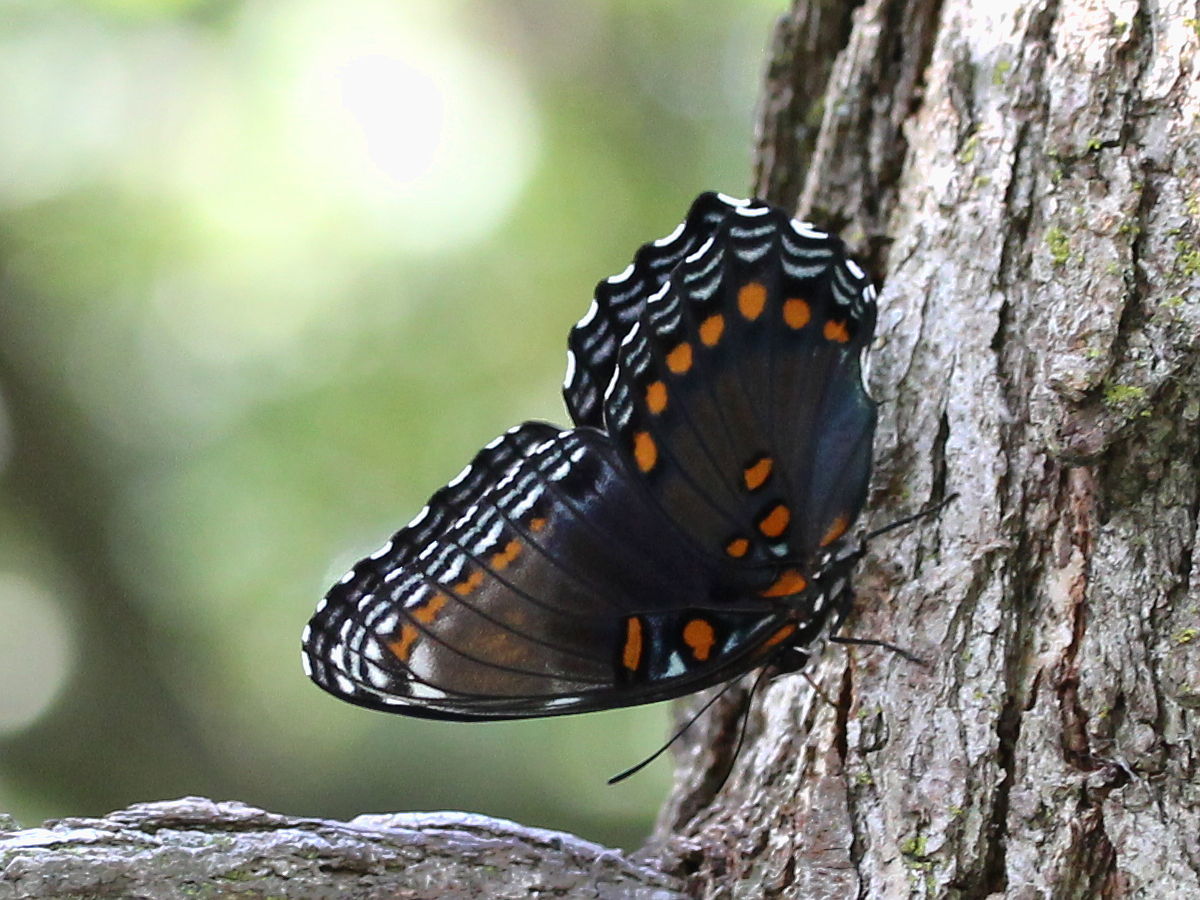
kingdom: Animalia
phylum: Arthropoda
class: Insecta
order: Lepidoptera
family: Nymphalidae
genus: Limenitis
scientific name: Limenitis astyanax
